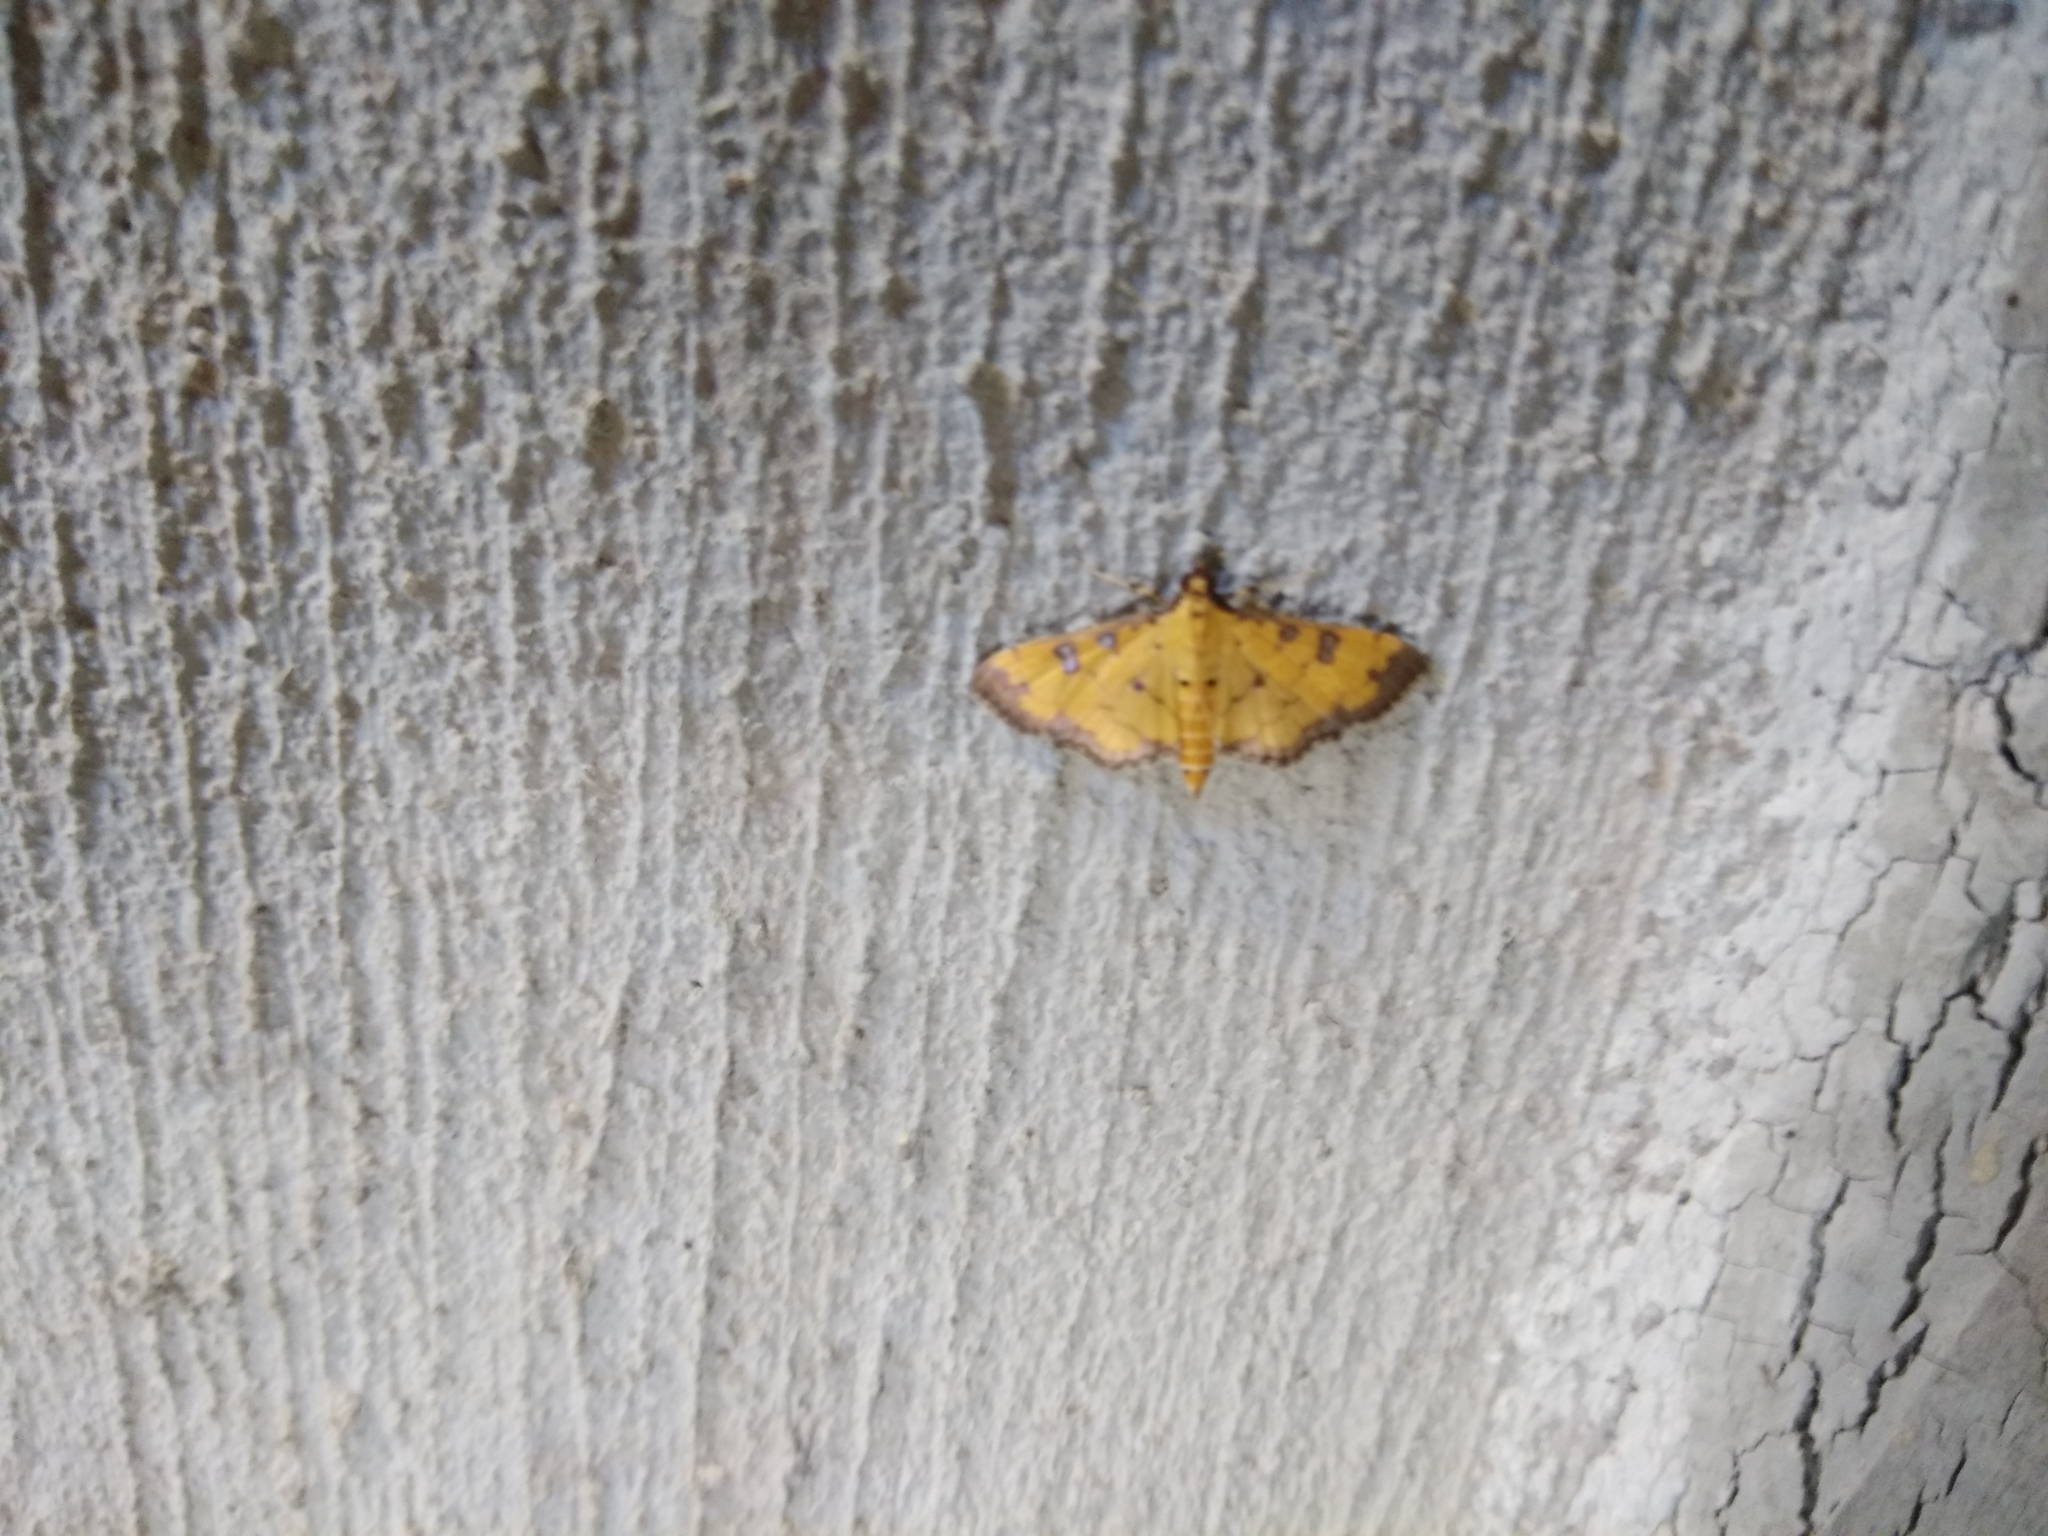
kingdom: Animalia
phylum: Arthropoda
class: Insecta
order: Lepidoptera
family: Crambidae
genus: Ategumia
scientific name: Ategumia ebulealis
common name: Moth
